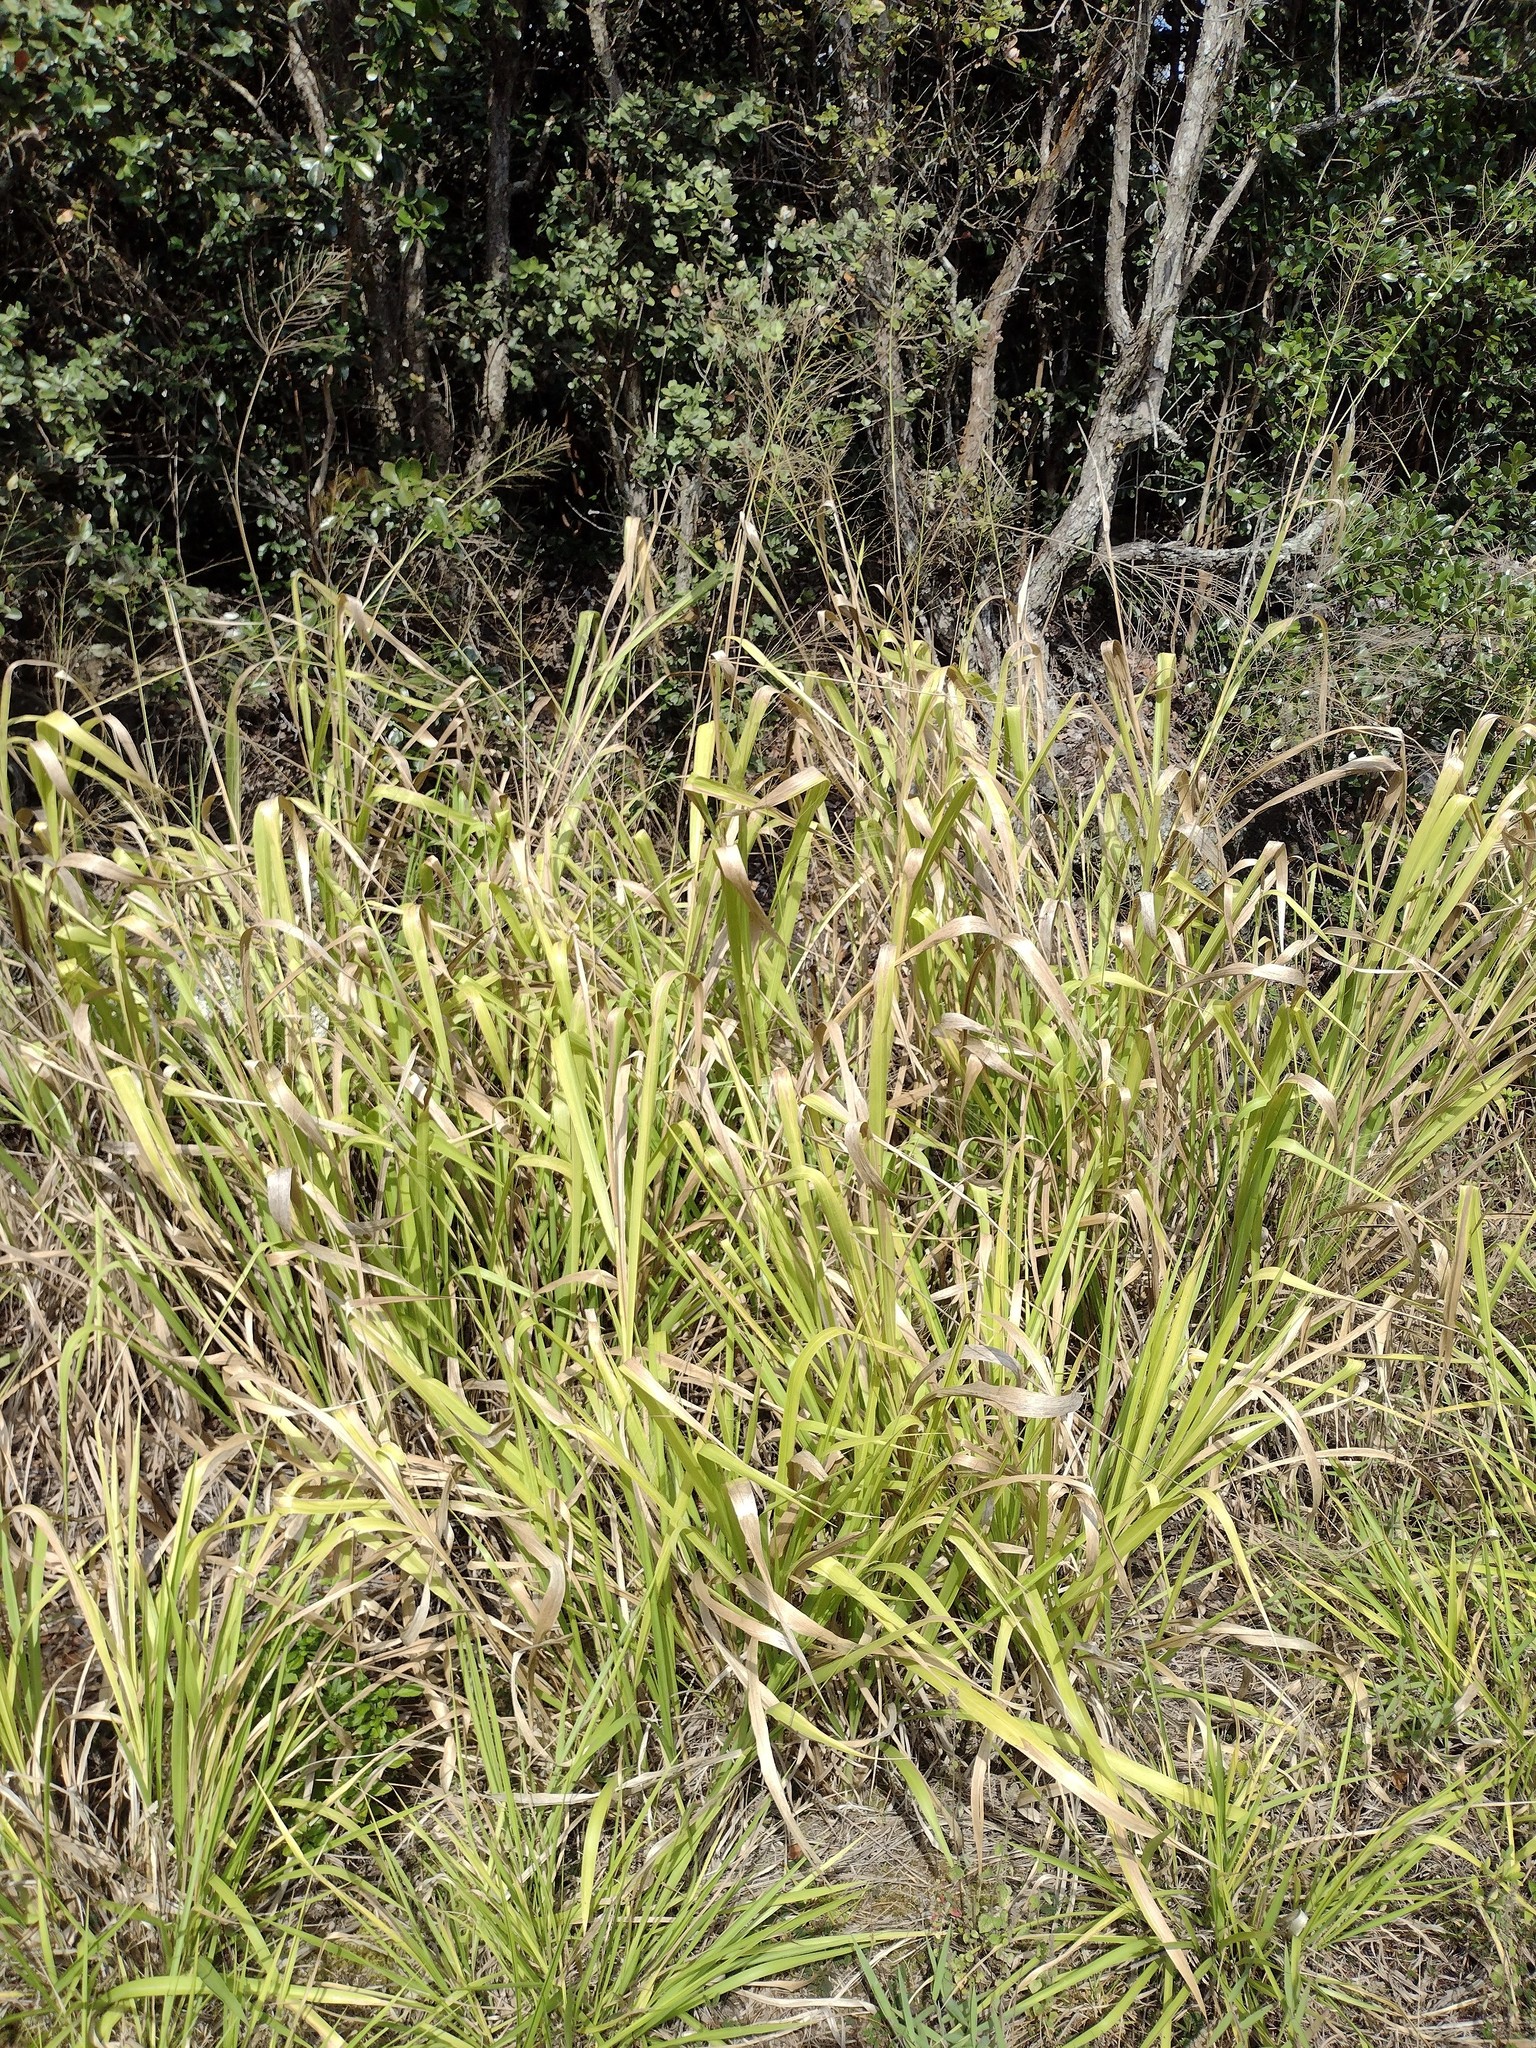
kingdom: Plantae
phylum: Tracheophyta
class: Liliopsida
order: Poales
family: Poaceae
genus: Megathyrsus
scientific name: Megathyrsus maximus
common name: Guineagrass
